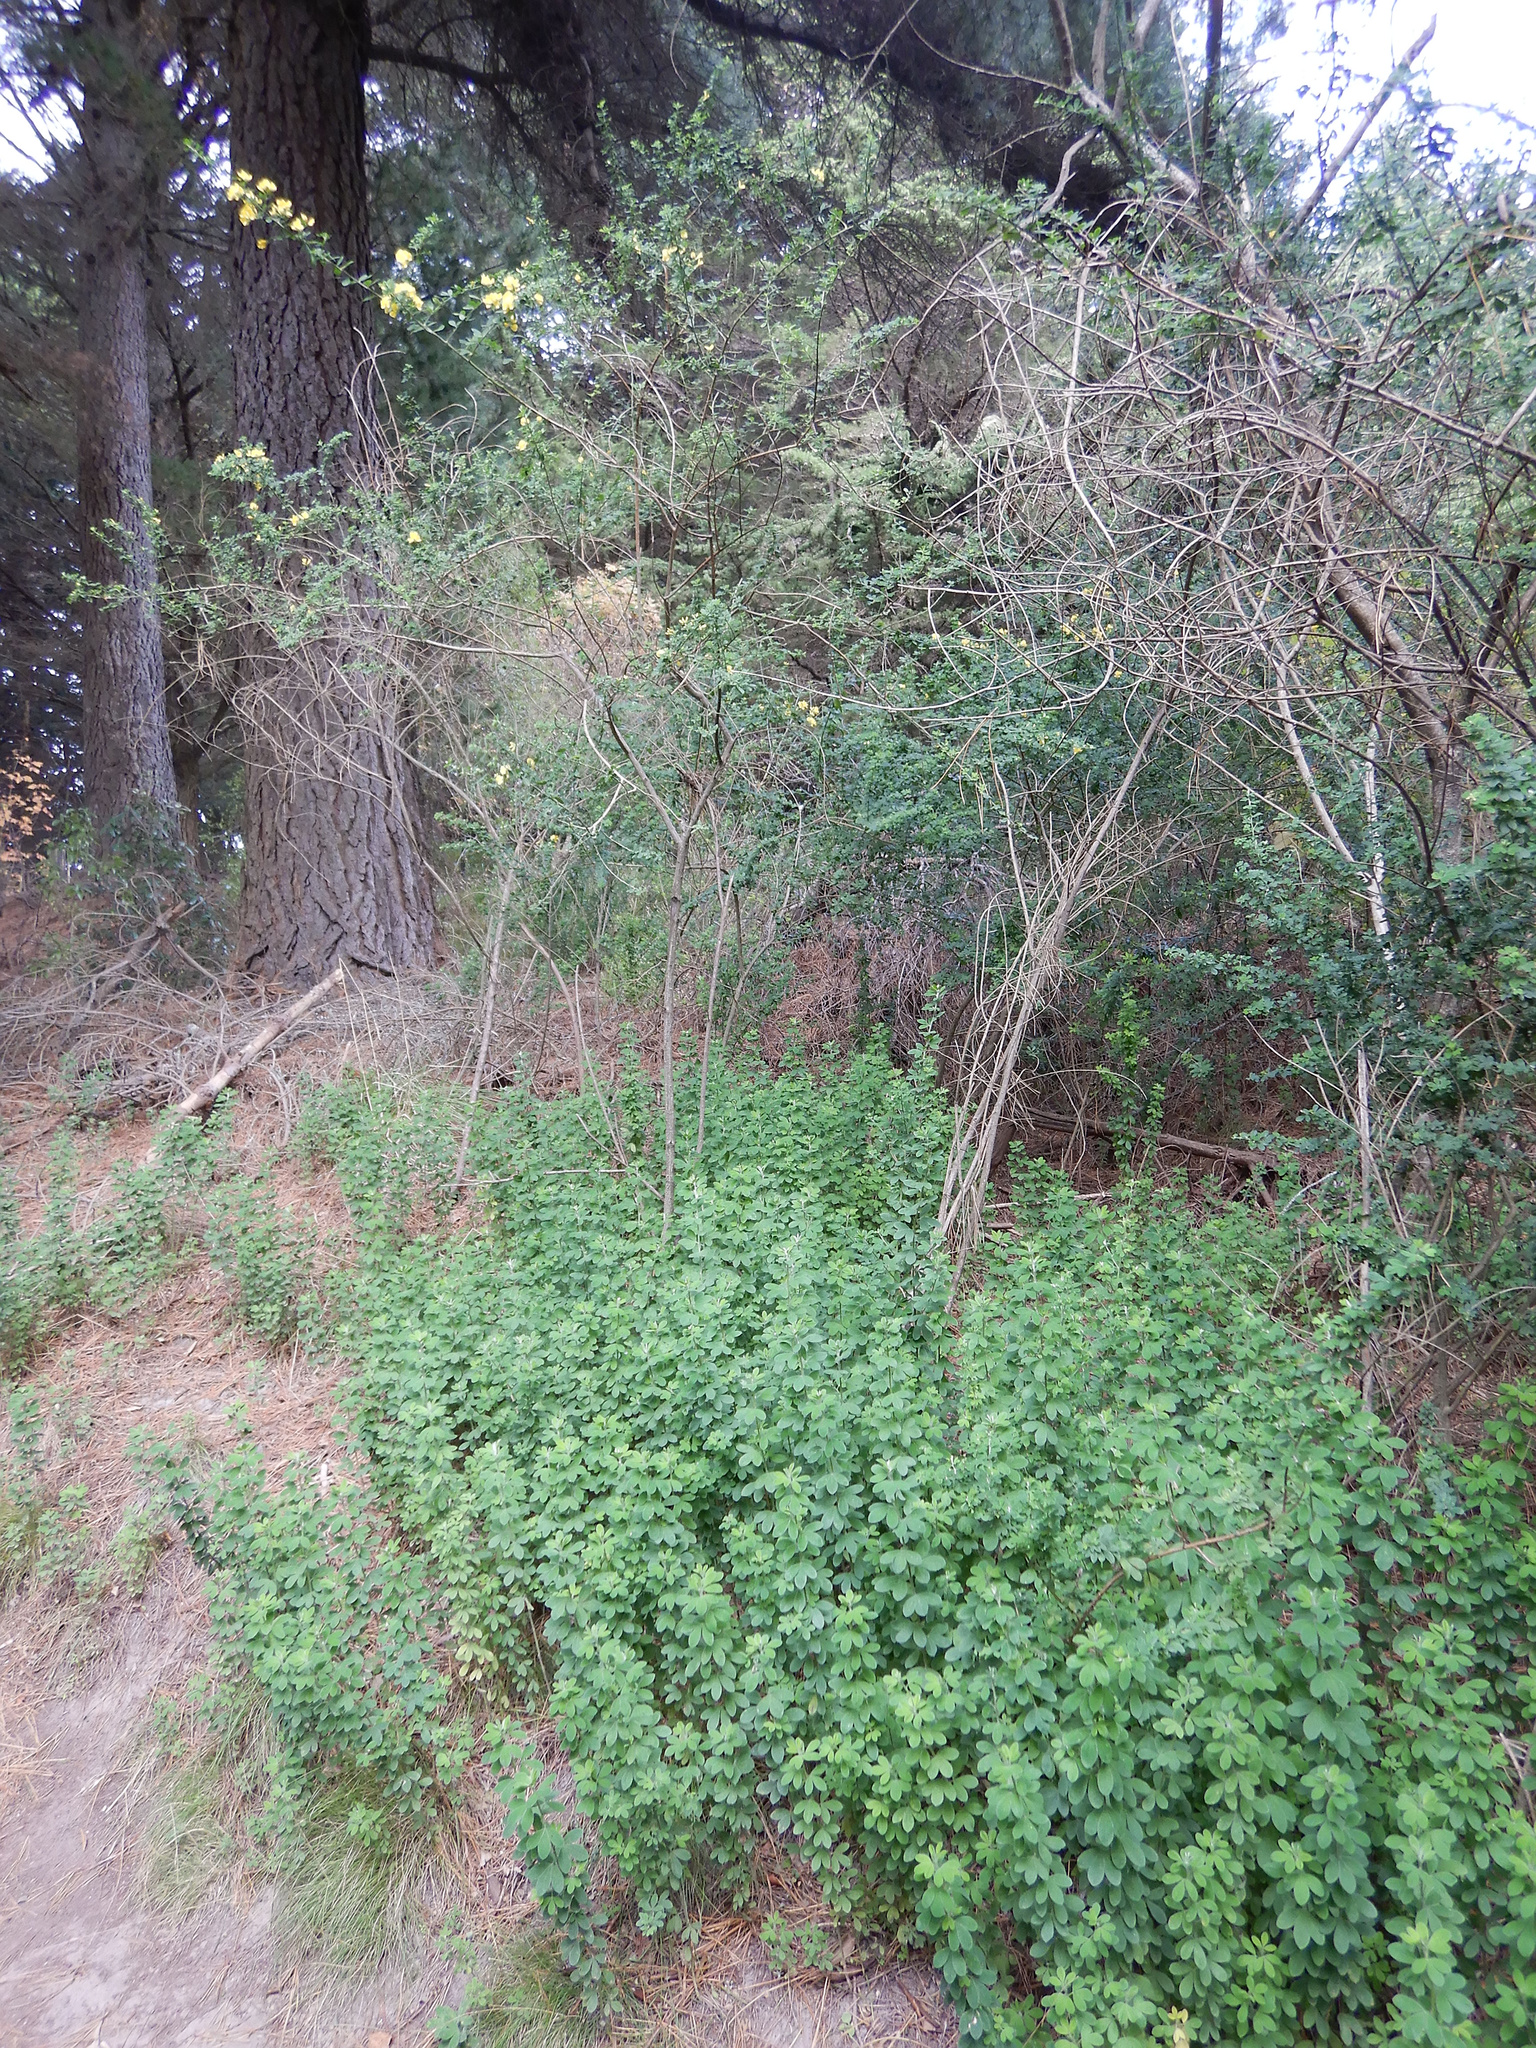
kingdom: Plantae
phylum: Tracheophyta
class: Magnoliopsida
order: Fabales
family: Fabaceae
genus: Genista
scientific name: Genista monspessulana
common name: Montpellier broom
